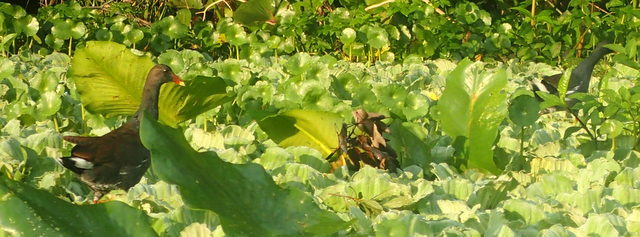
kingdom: Animalia
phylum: Chordata
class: Aves
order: Gruiformes
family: Rallidae
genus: Gallinula
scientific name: Gallinula chloropus
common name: Common moorhen
